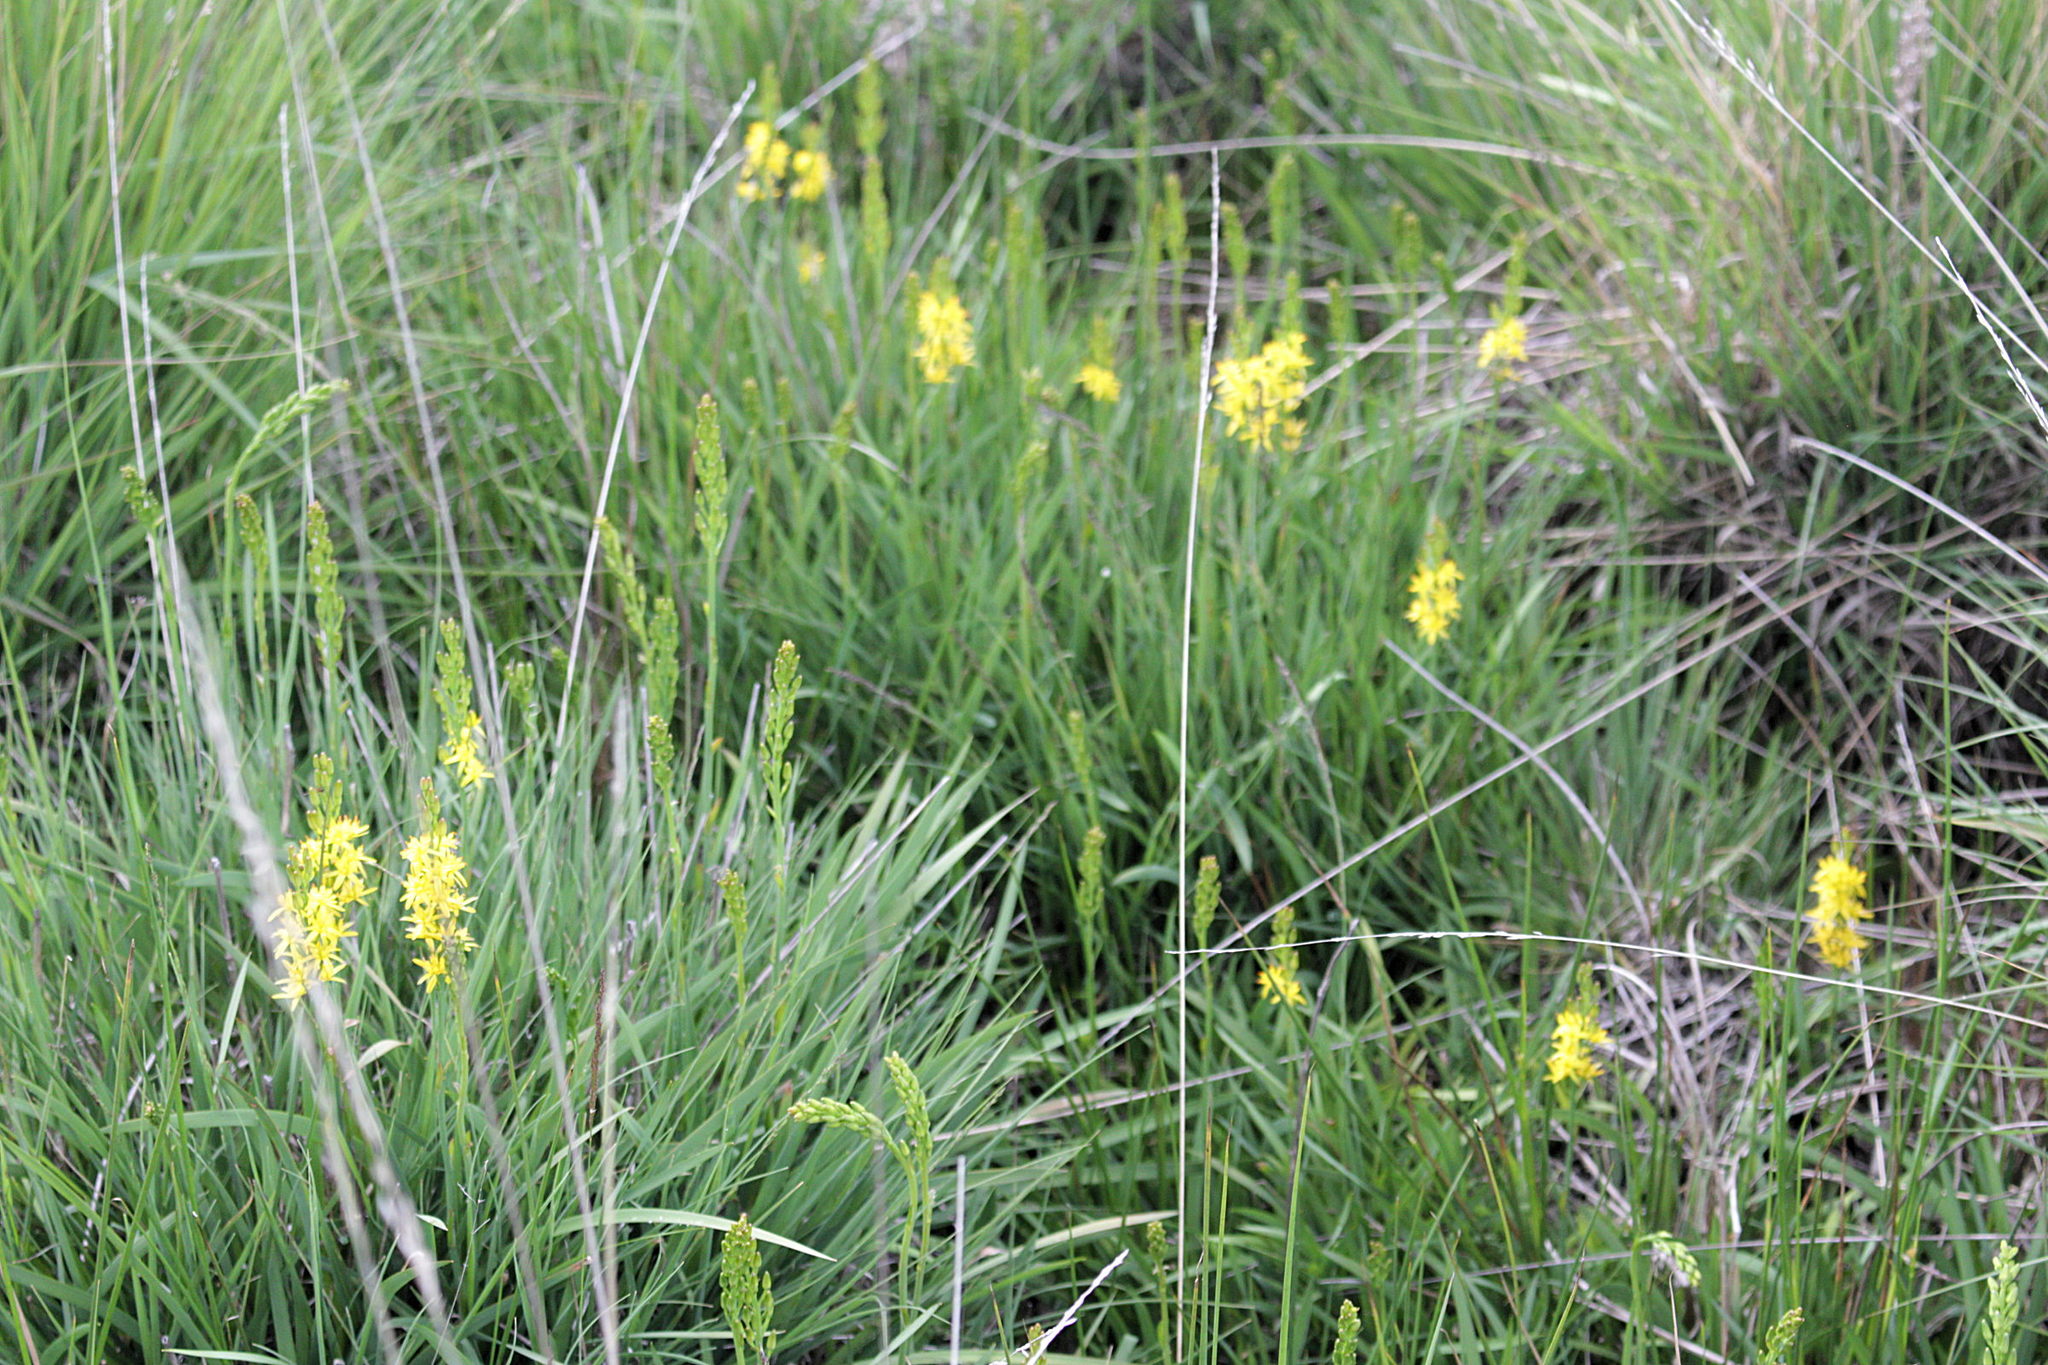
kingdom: Plantae
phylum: Tracheophyta
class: Liliopsida
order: Dioscoreales
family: Nartheciaceae
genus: Narthecium
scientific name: Narthecium ossifragum
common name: Bog asphodel
